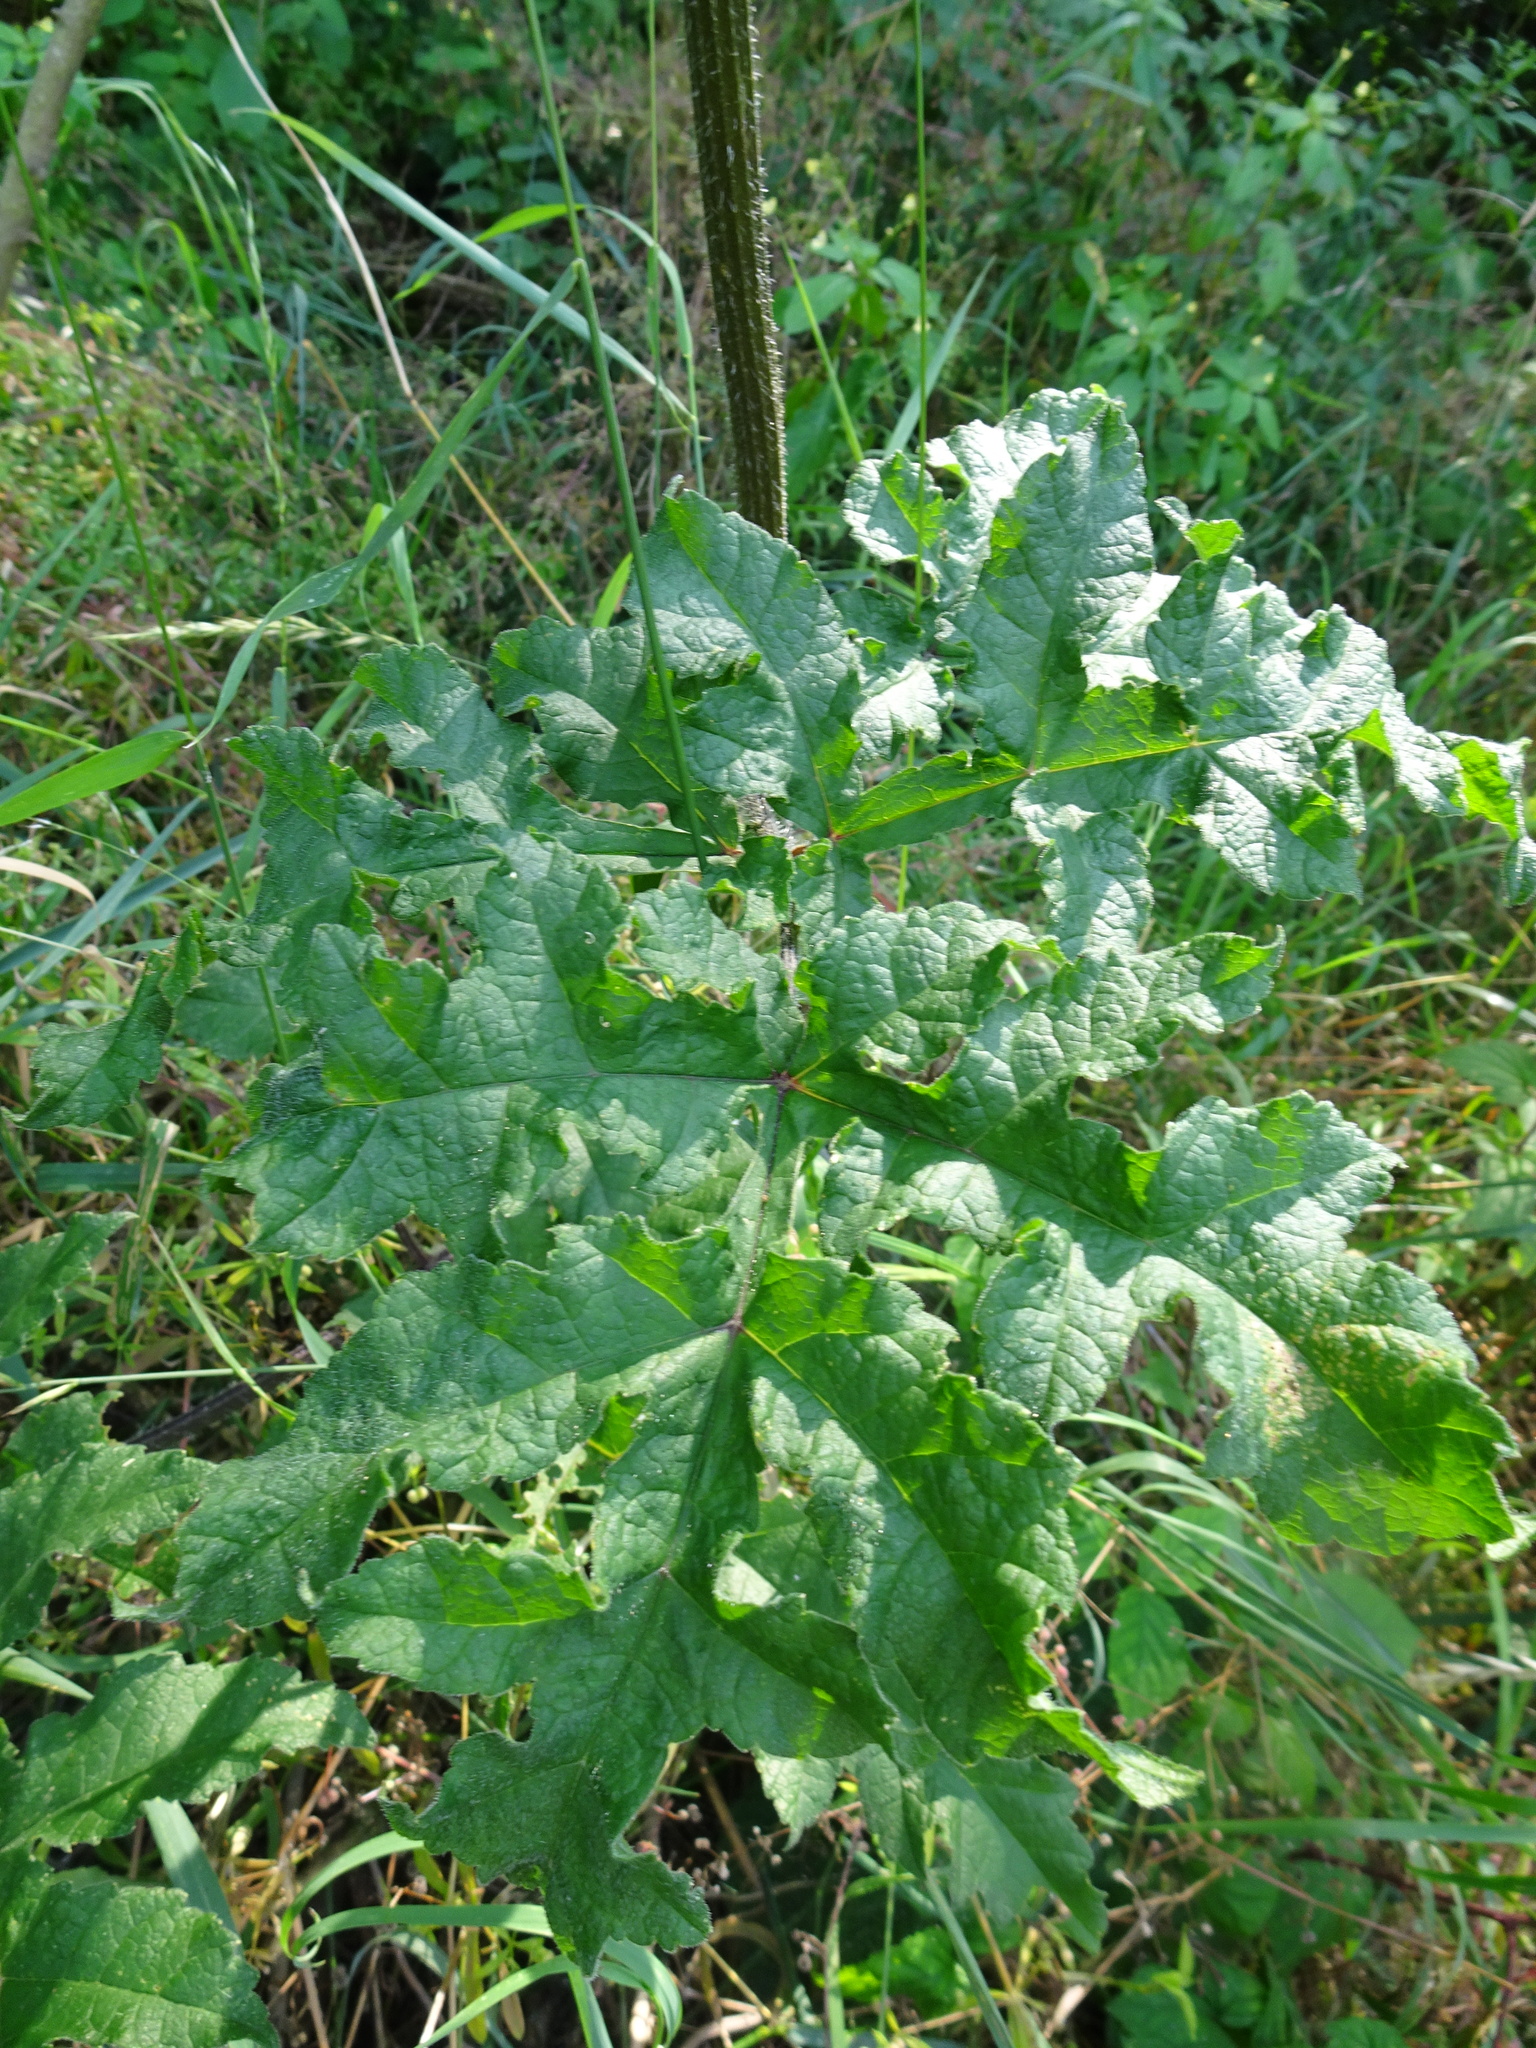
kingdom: Plantae
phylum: Tracheophyta
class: Magnoliopsida
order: Apiales
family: Apiaceae
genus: Heracleum
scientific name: Heracleum sphondylium
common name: Hogweed
